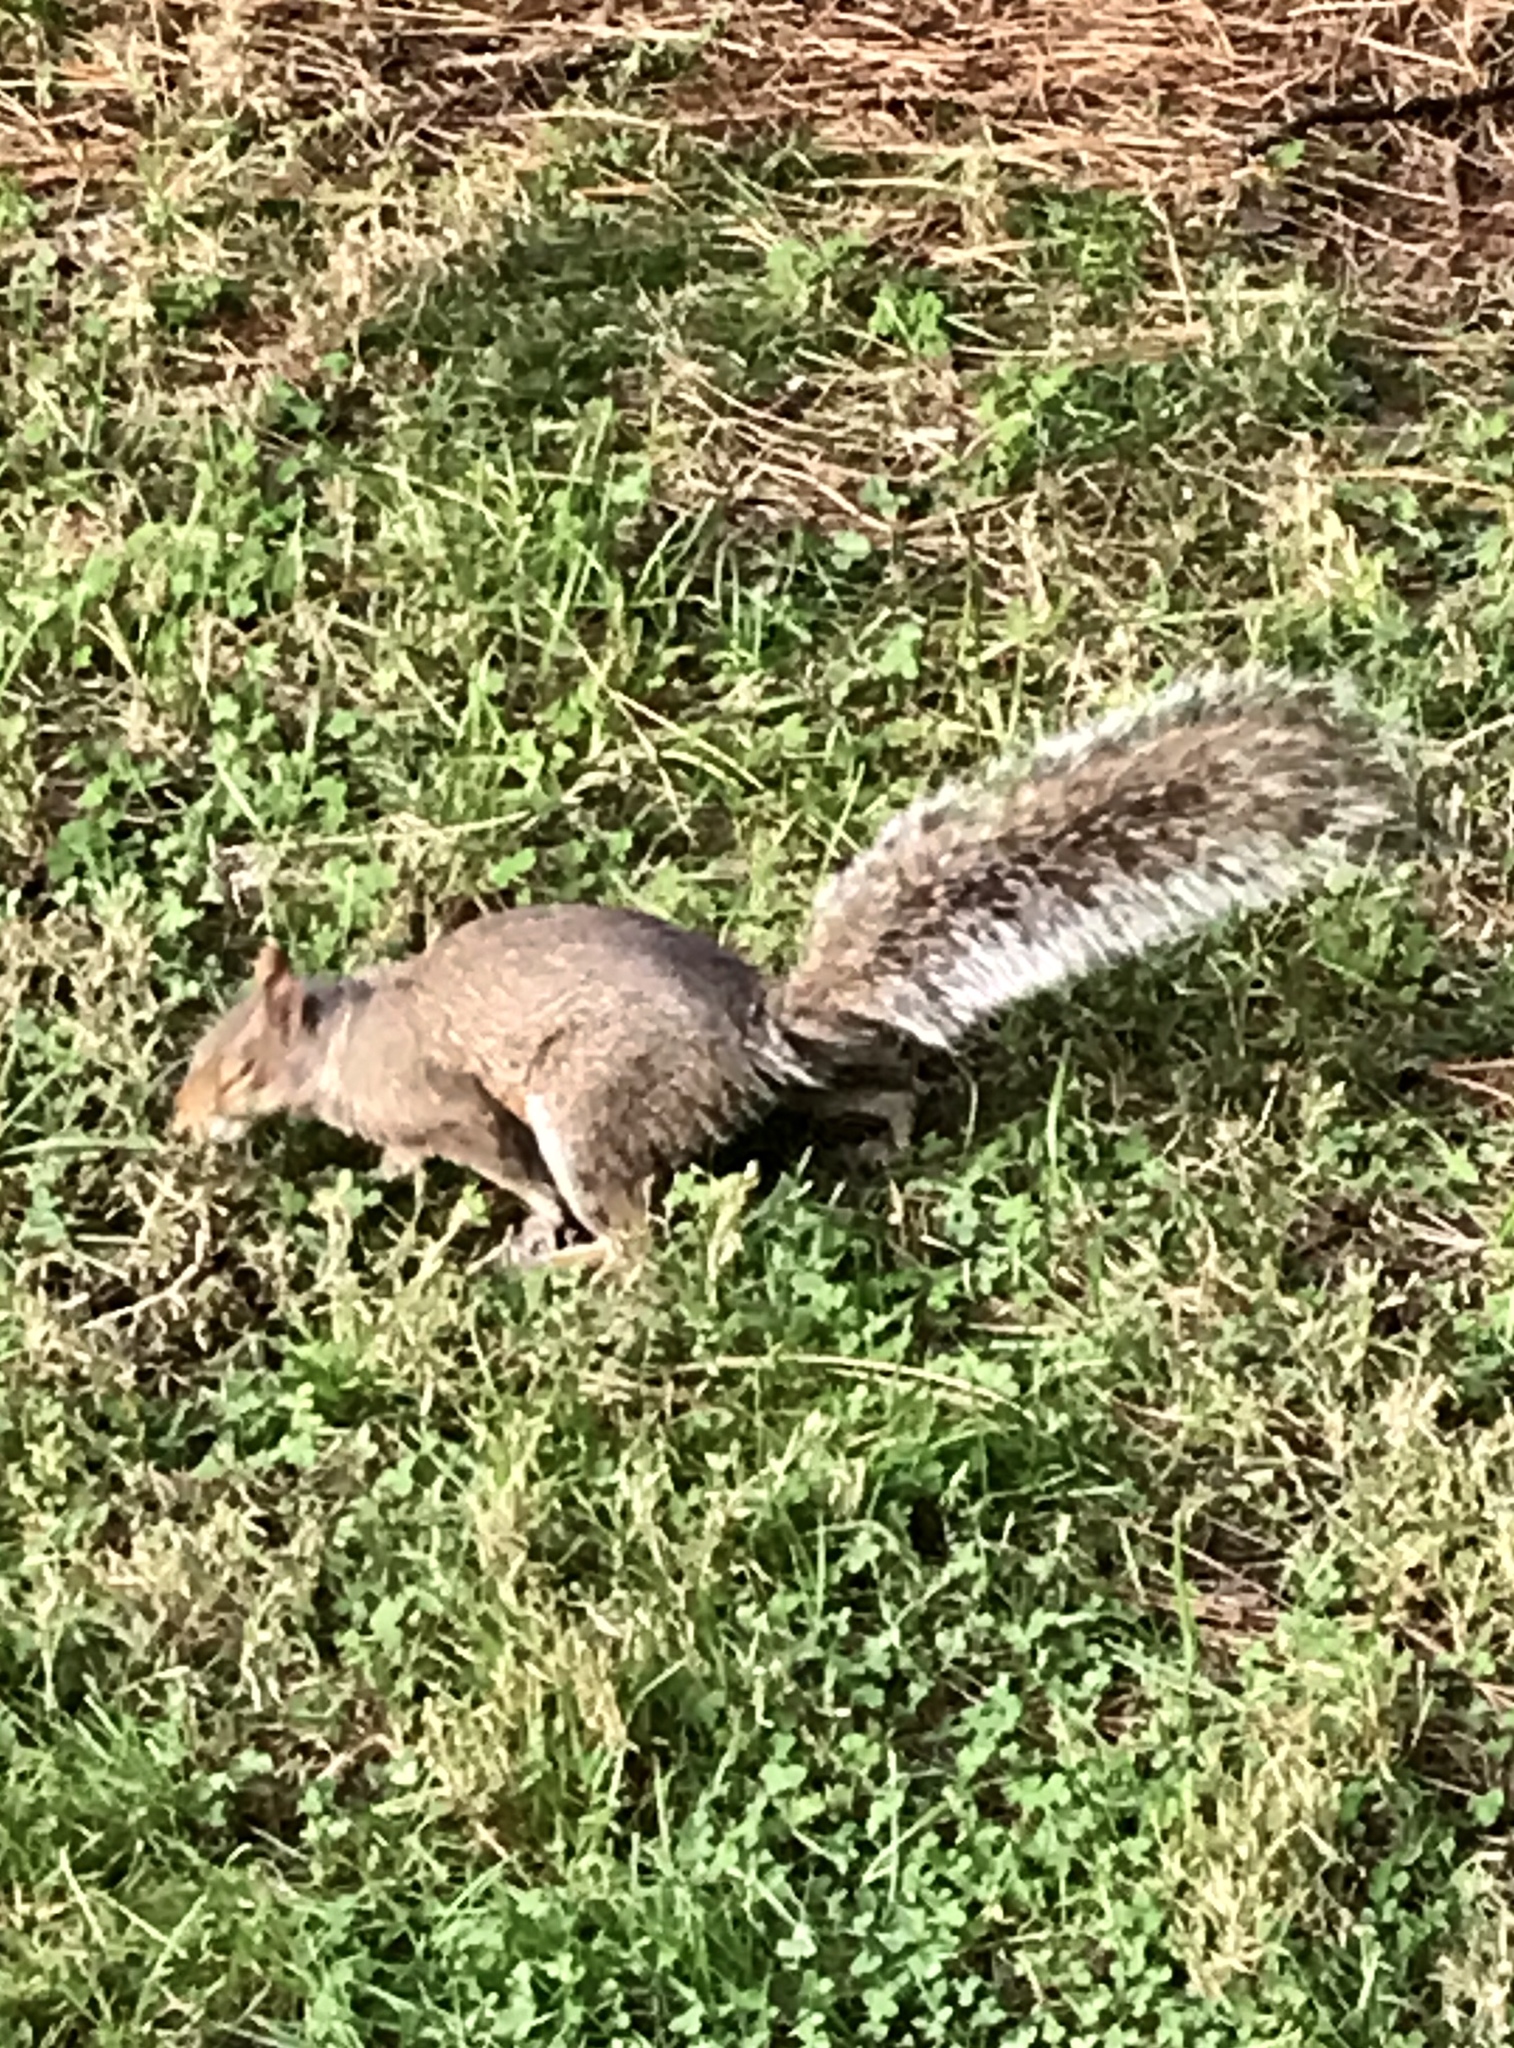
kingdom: Animalia
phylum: Chordata
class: Mammalia
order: Rodentia
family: Sciuridae
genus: Sciurus
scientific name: Sciurus carolinensis
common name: Eastern gray squirrel
